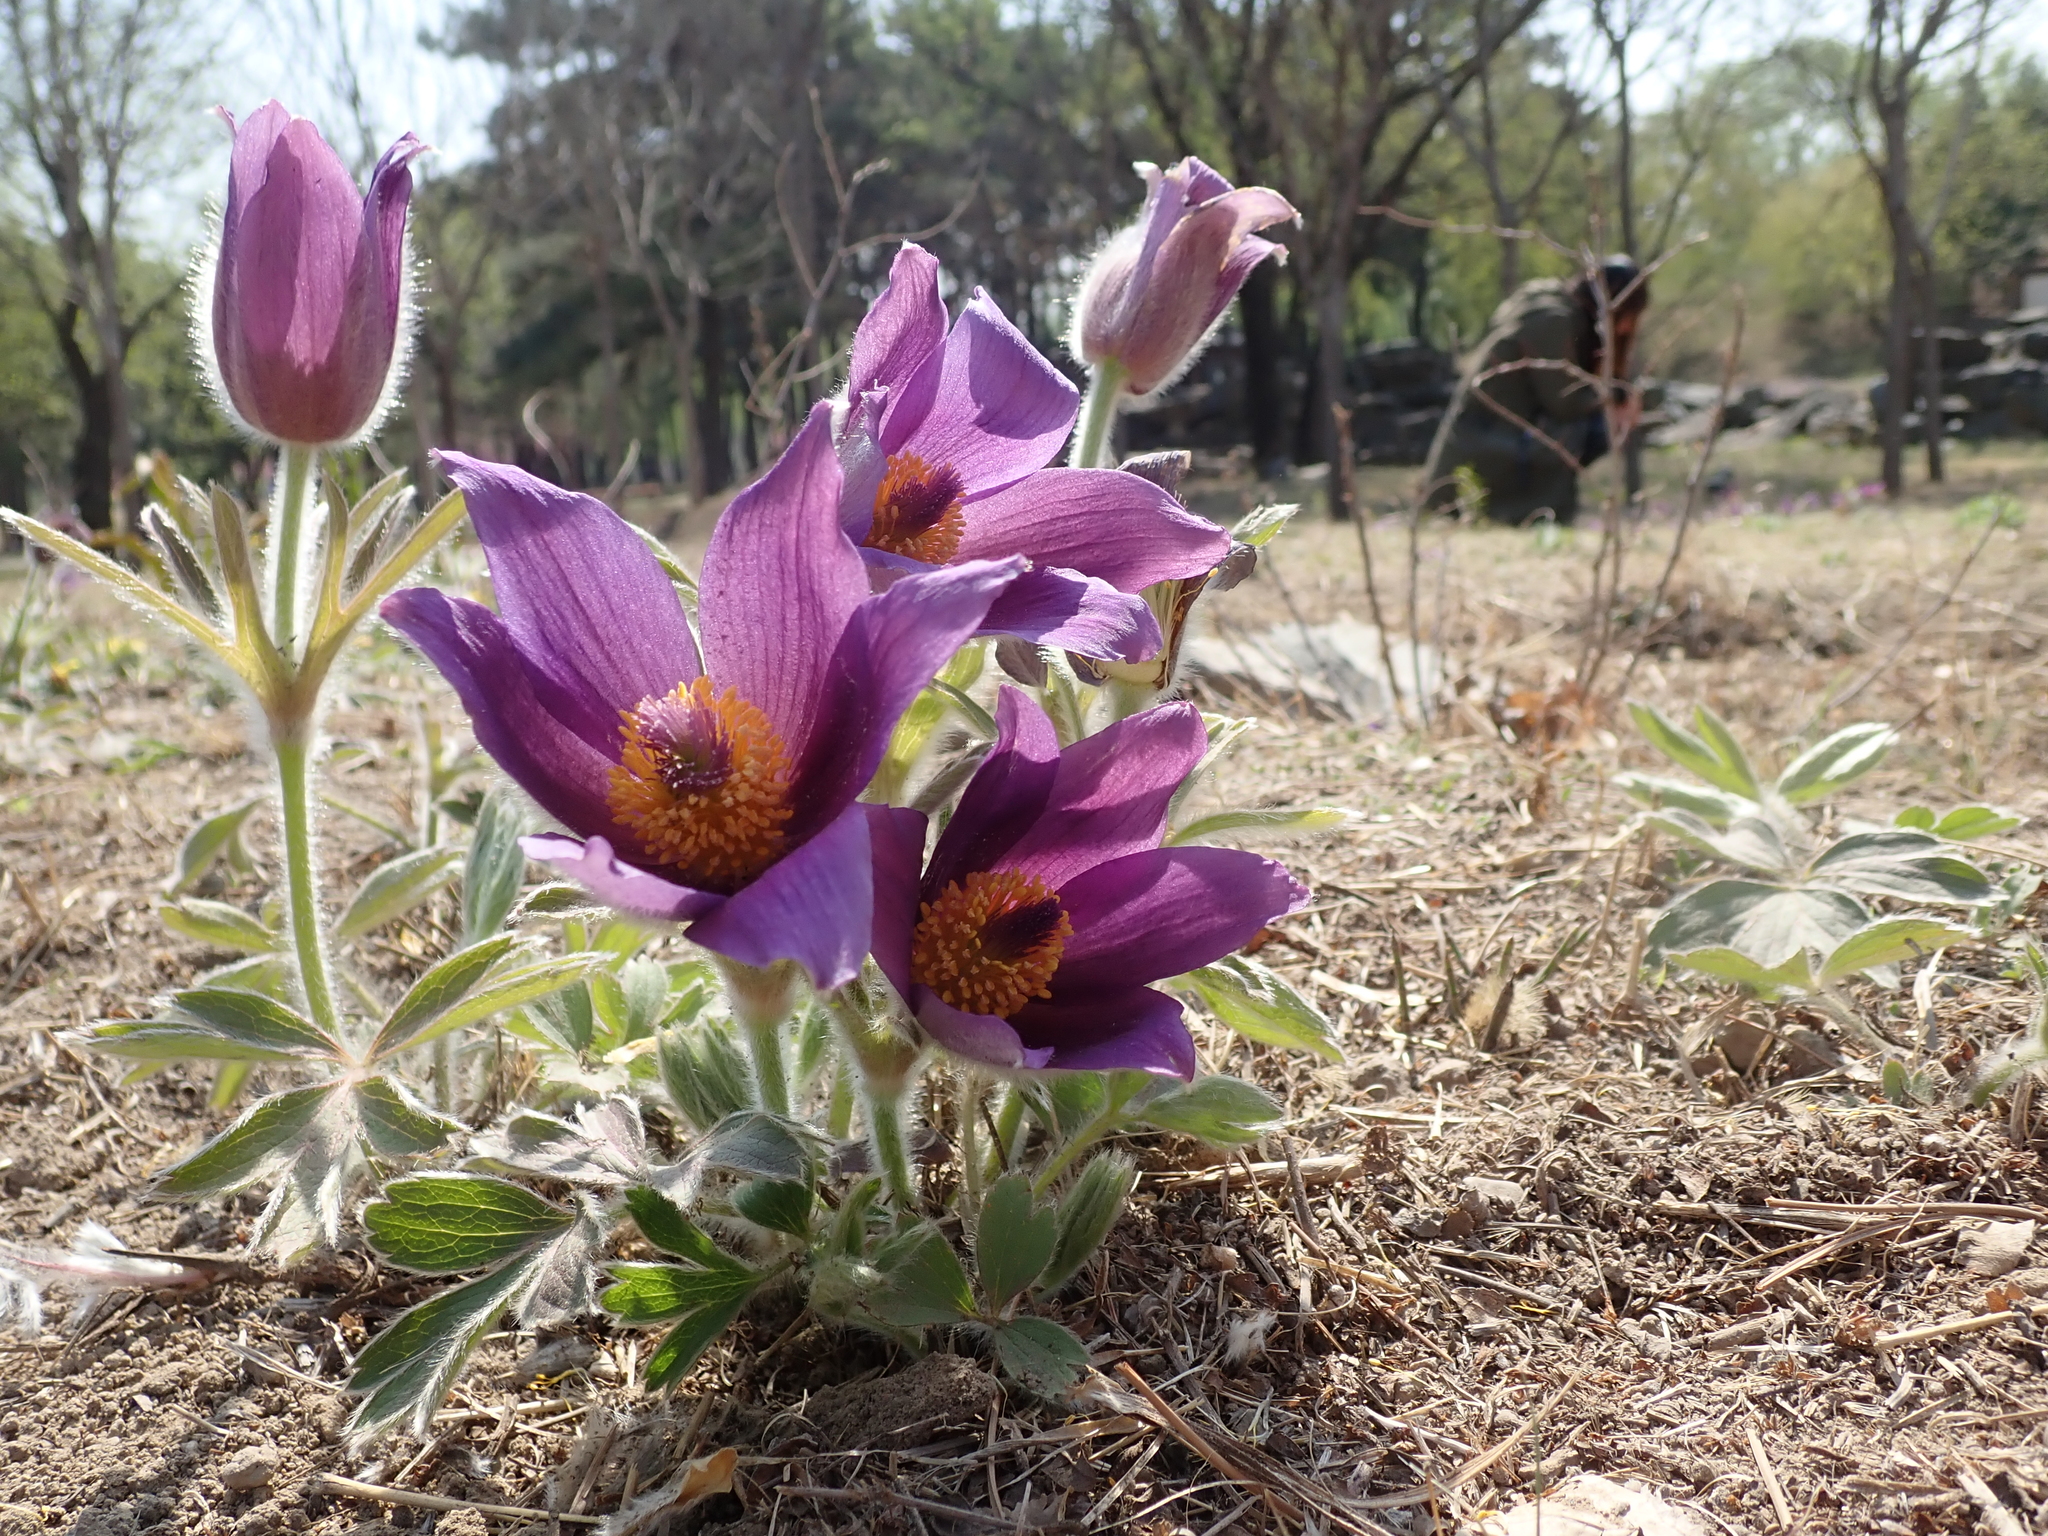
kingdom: Plantae
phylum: Tracheophyta
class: Magnoliopsida
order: Ranunculales
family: Ranunculaceae
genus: Pulsatilla
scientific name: Pulsatilla chinensis
